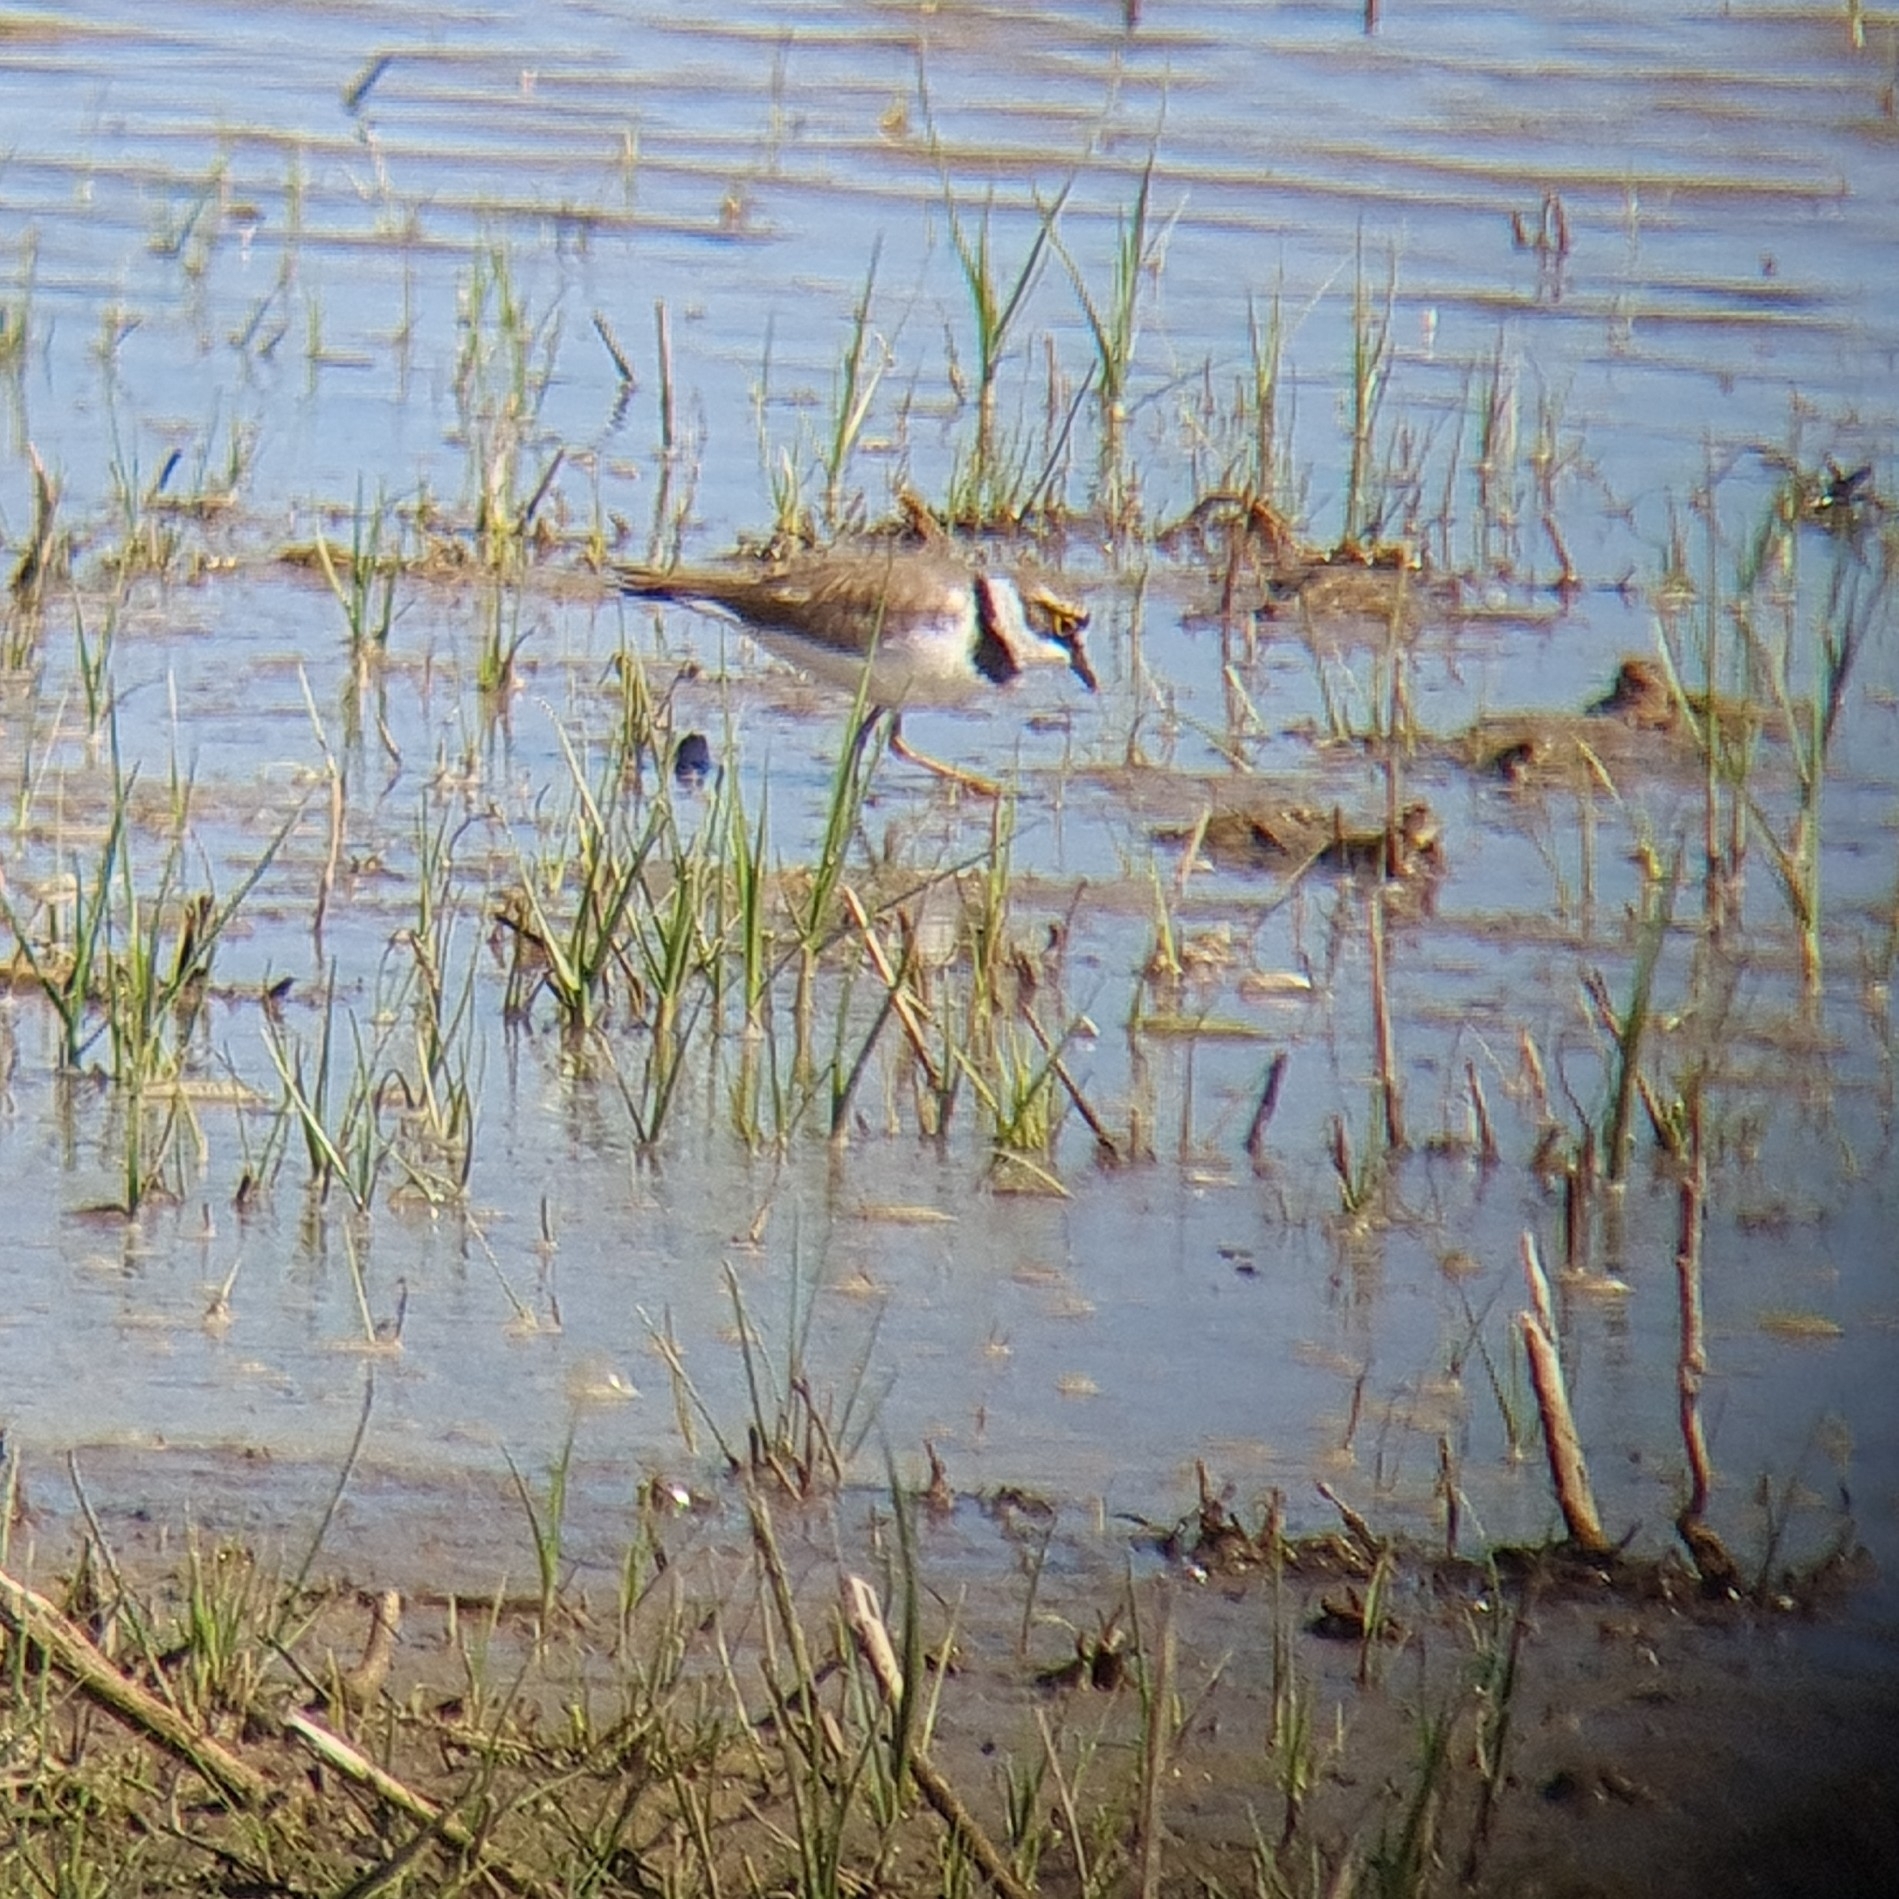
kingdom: Animalia
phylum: Chordata
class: Aves
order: Charadriiformes
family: Charadriidae
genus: Charadrius
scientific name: Charadrius dubius
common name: Little ringed plover
